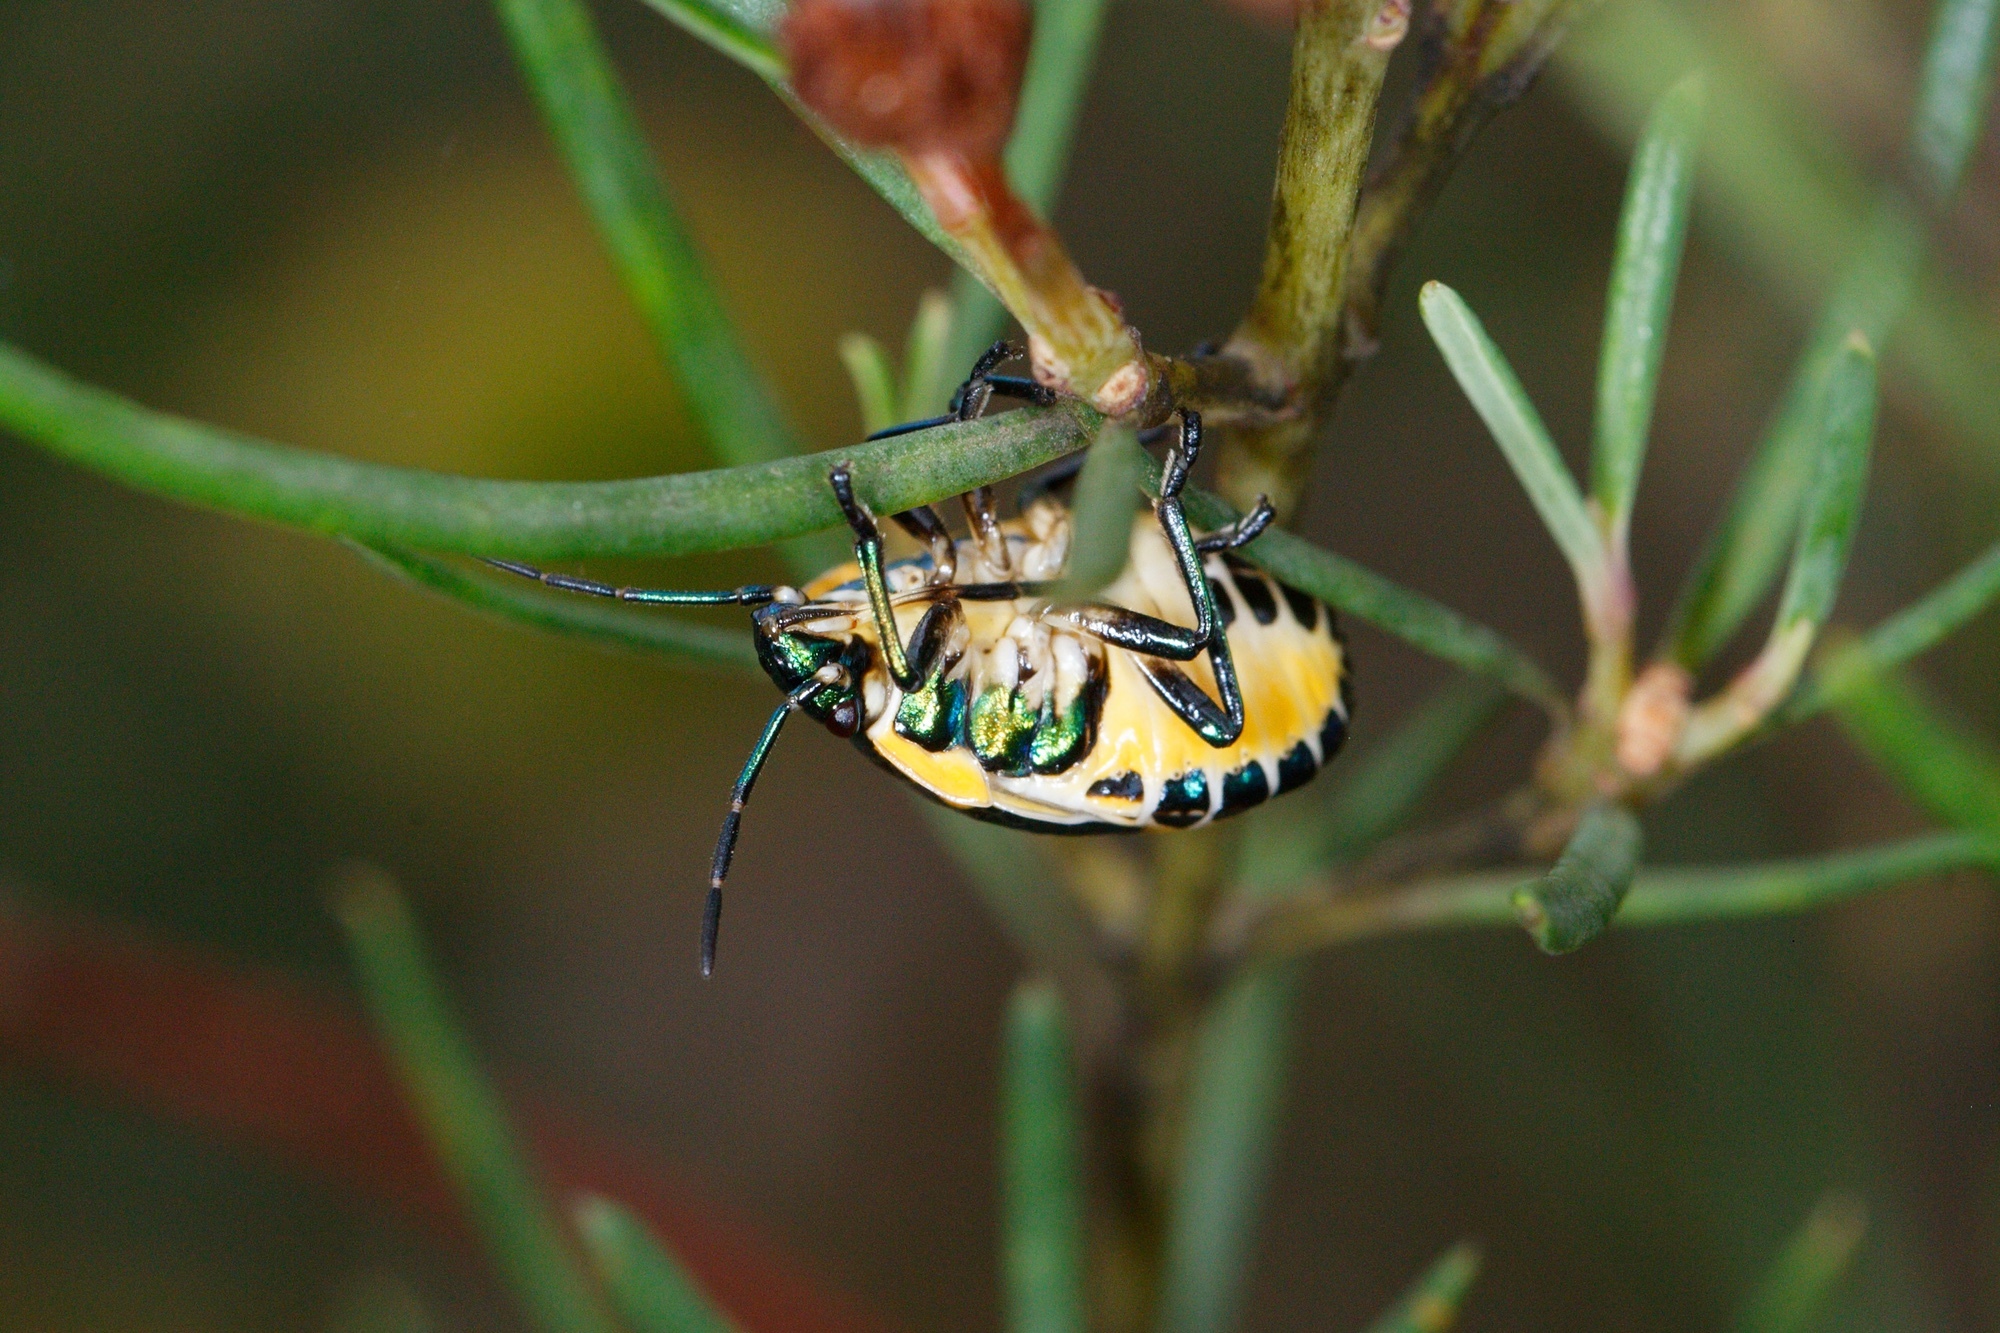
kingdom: Animalia
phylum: Arthropoda
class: Insecta
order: Hemiptera
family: Scutelleridae
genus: Scutiphora
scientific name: Scutiphora pedicellata
